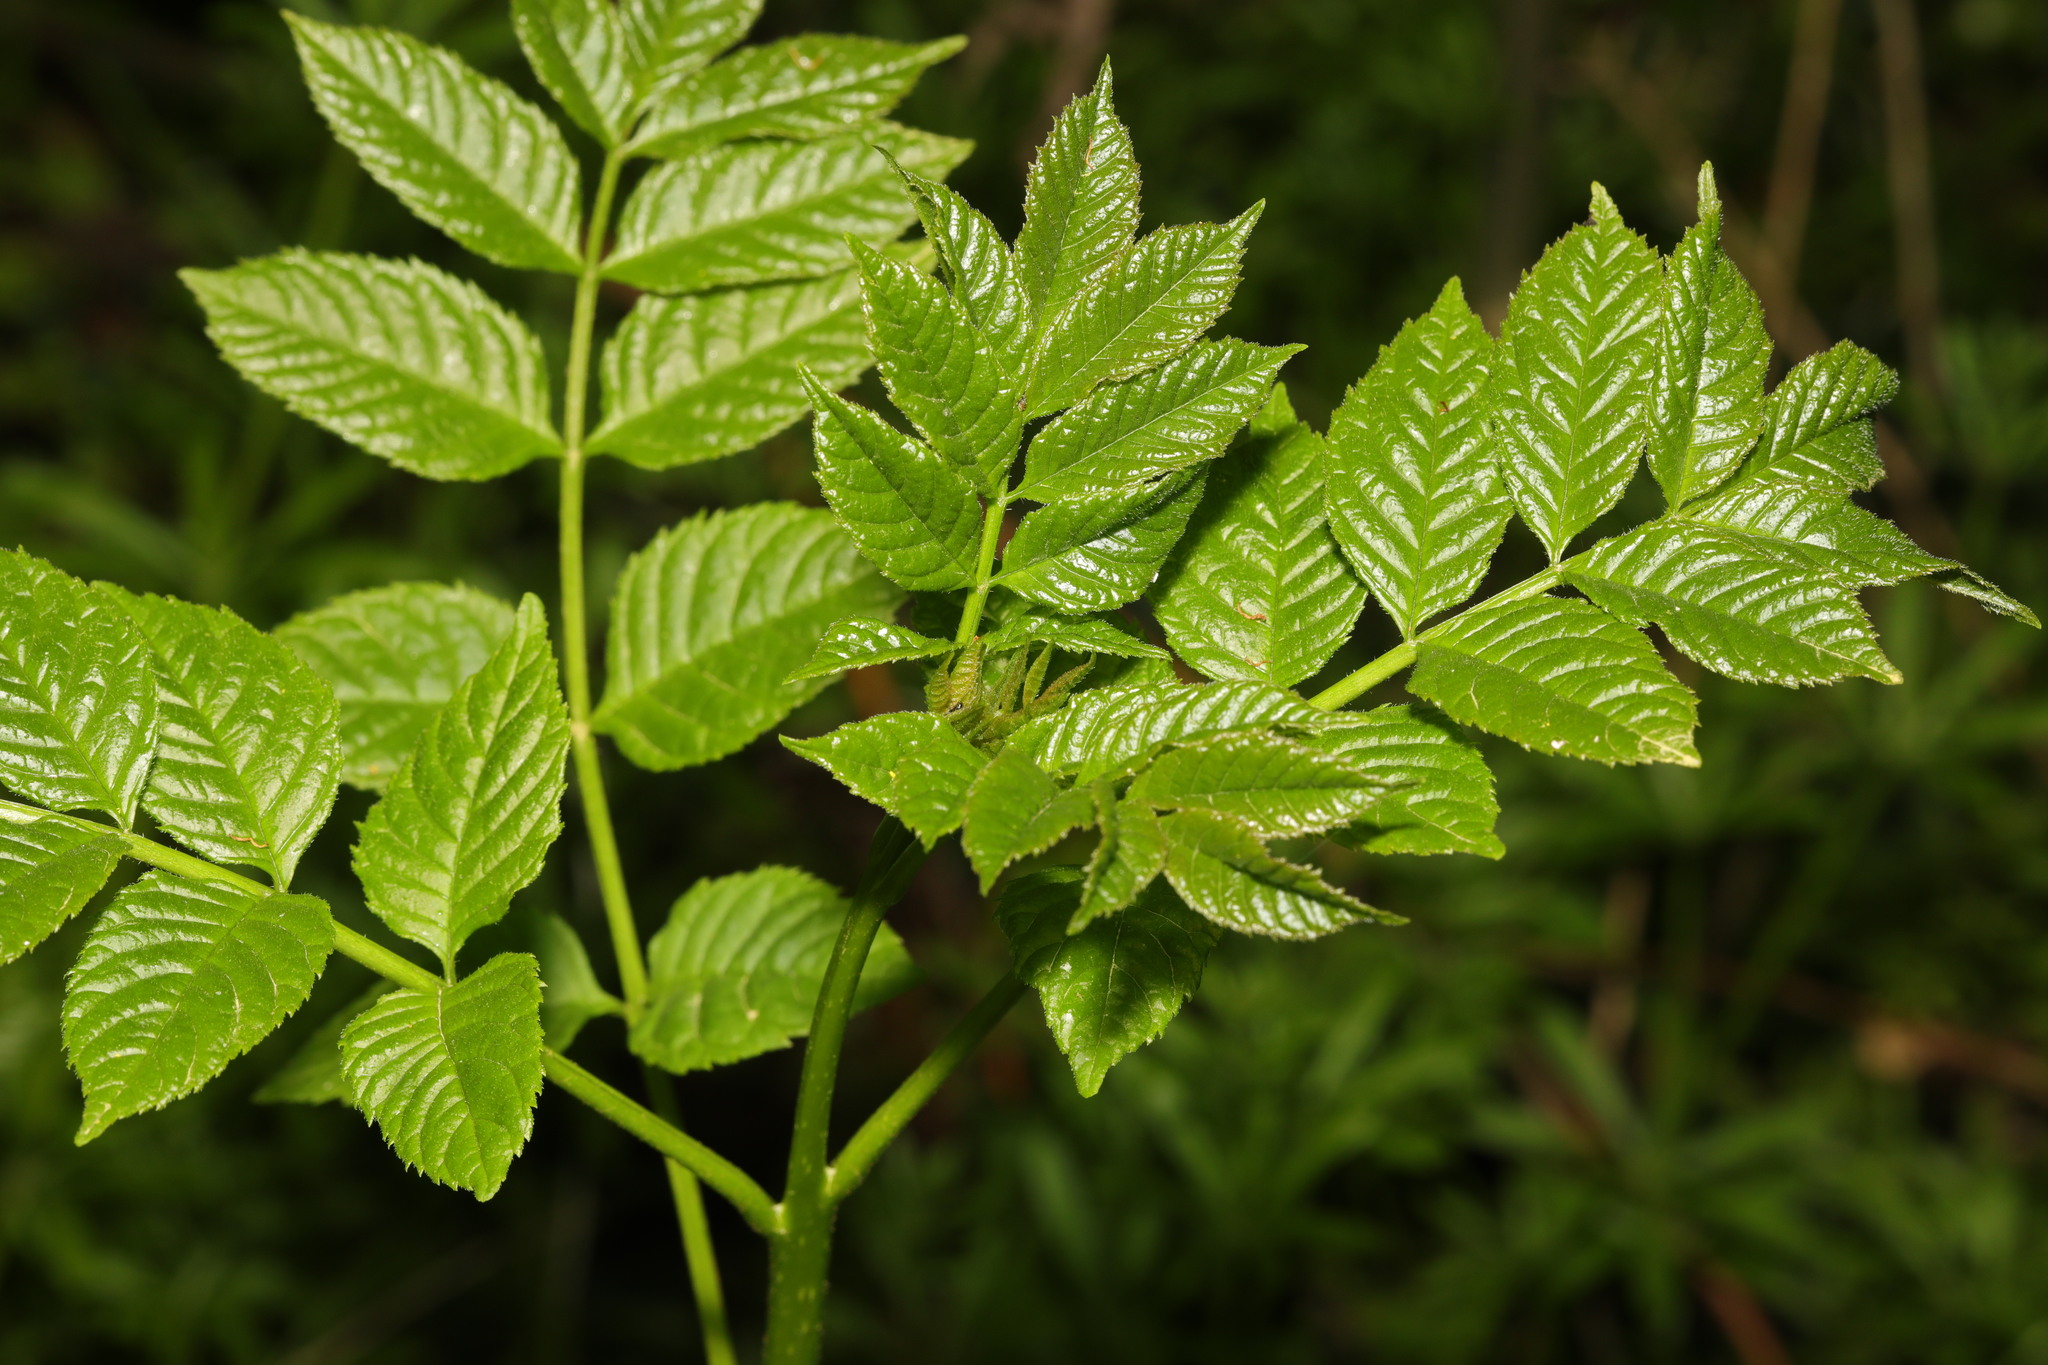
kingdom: Plantae
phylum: Tracheophyta
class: Magnoliopsida
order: Lamiales
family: Oleaceae
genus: Fraxinus
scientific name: Fraxinus excelsior
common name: European ash
